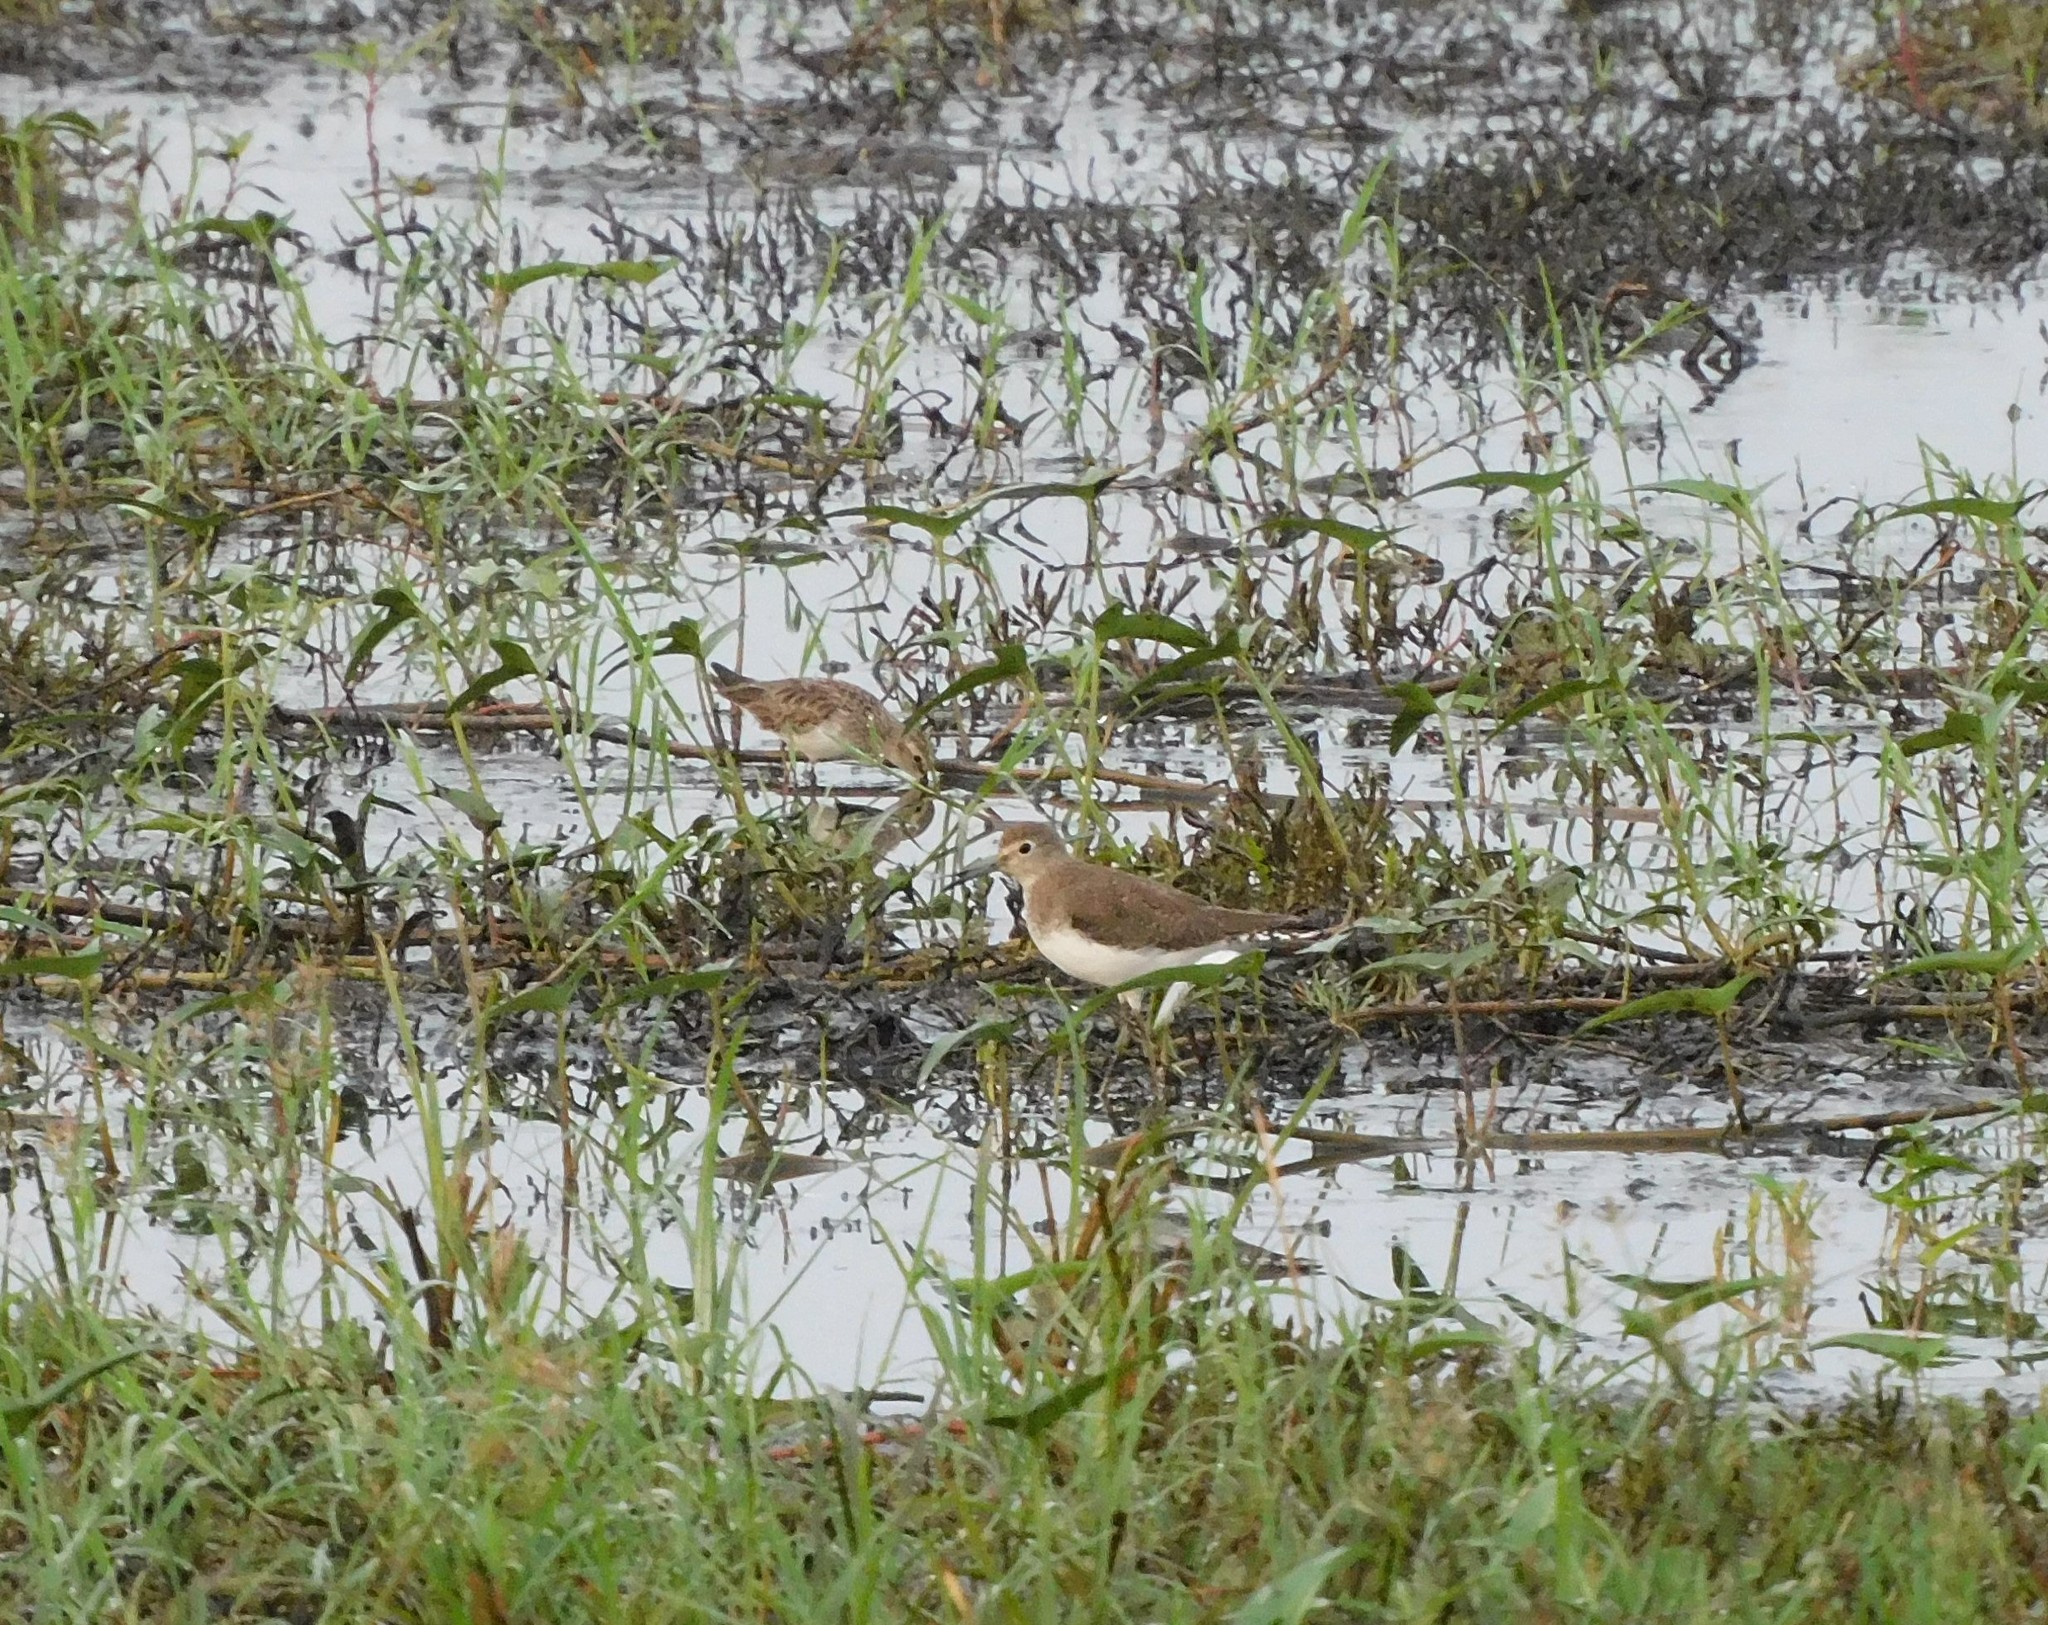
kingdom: Animalia
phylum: Chordata
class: Aves
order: Charadriiformes
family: Scolopacidae
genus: Tringa
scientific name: Tringa solitaria
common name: Solitary sandpiper
